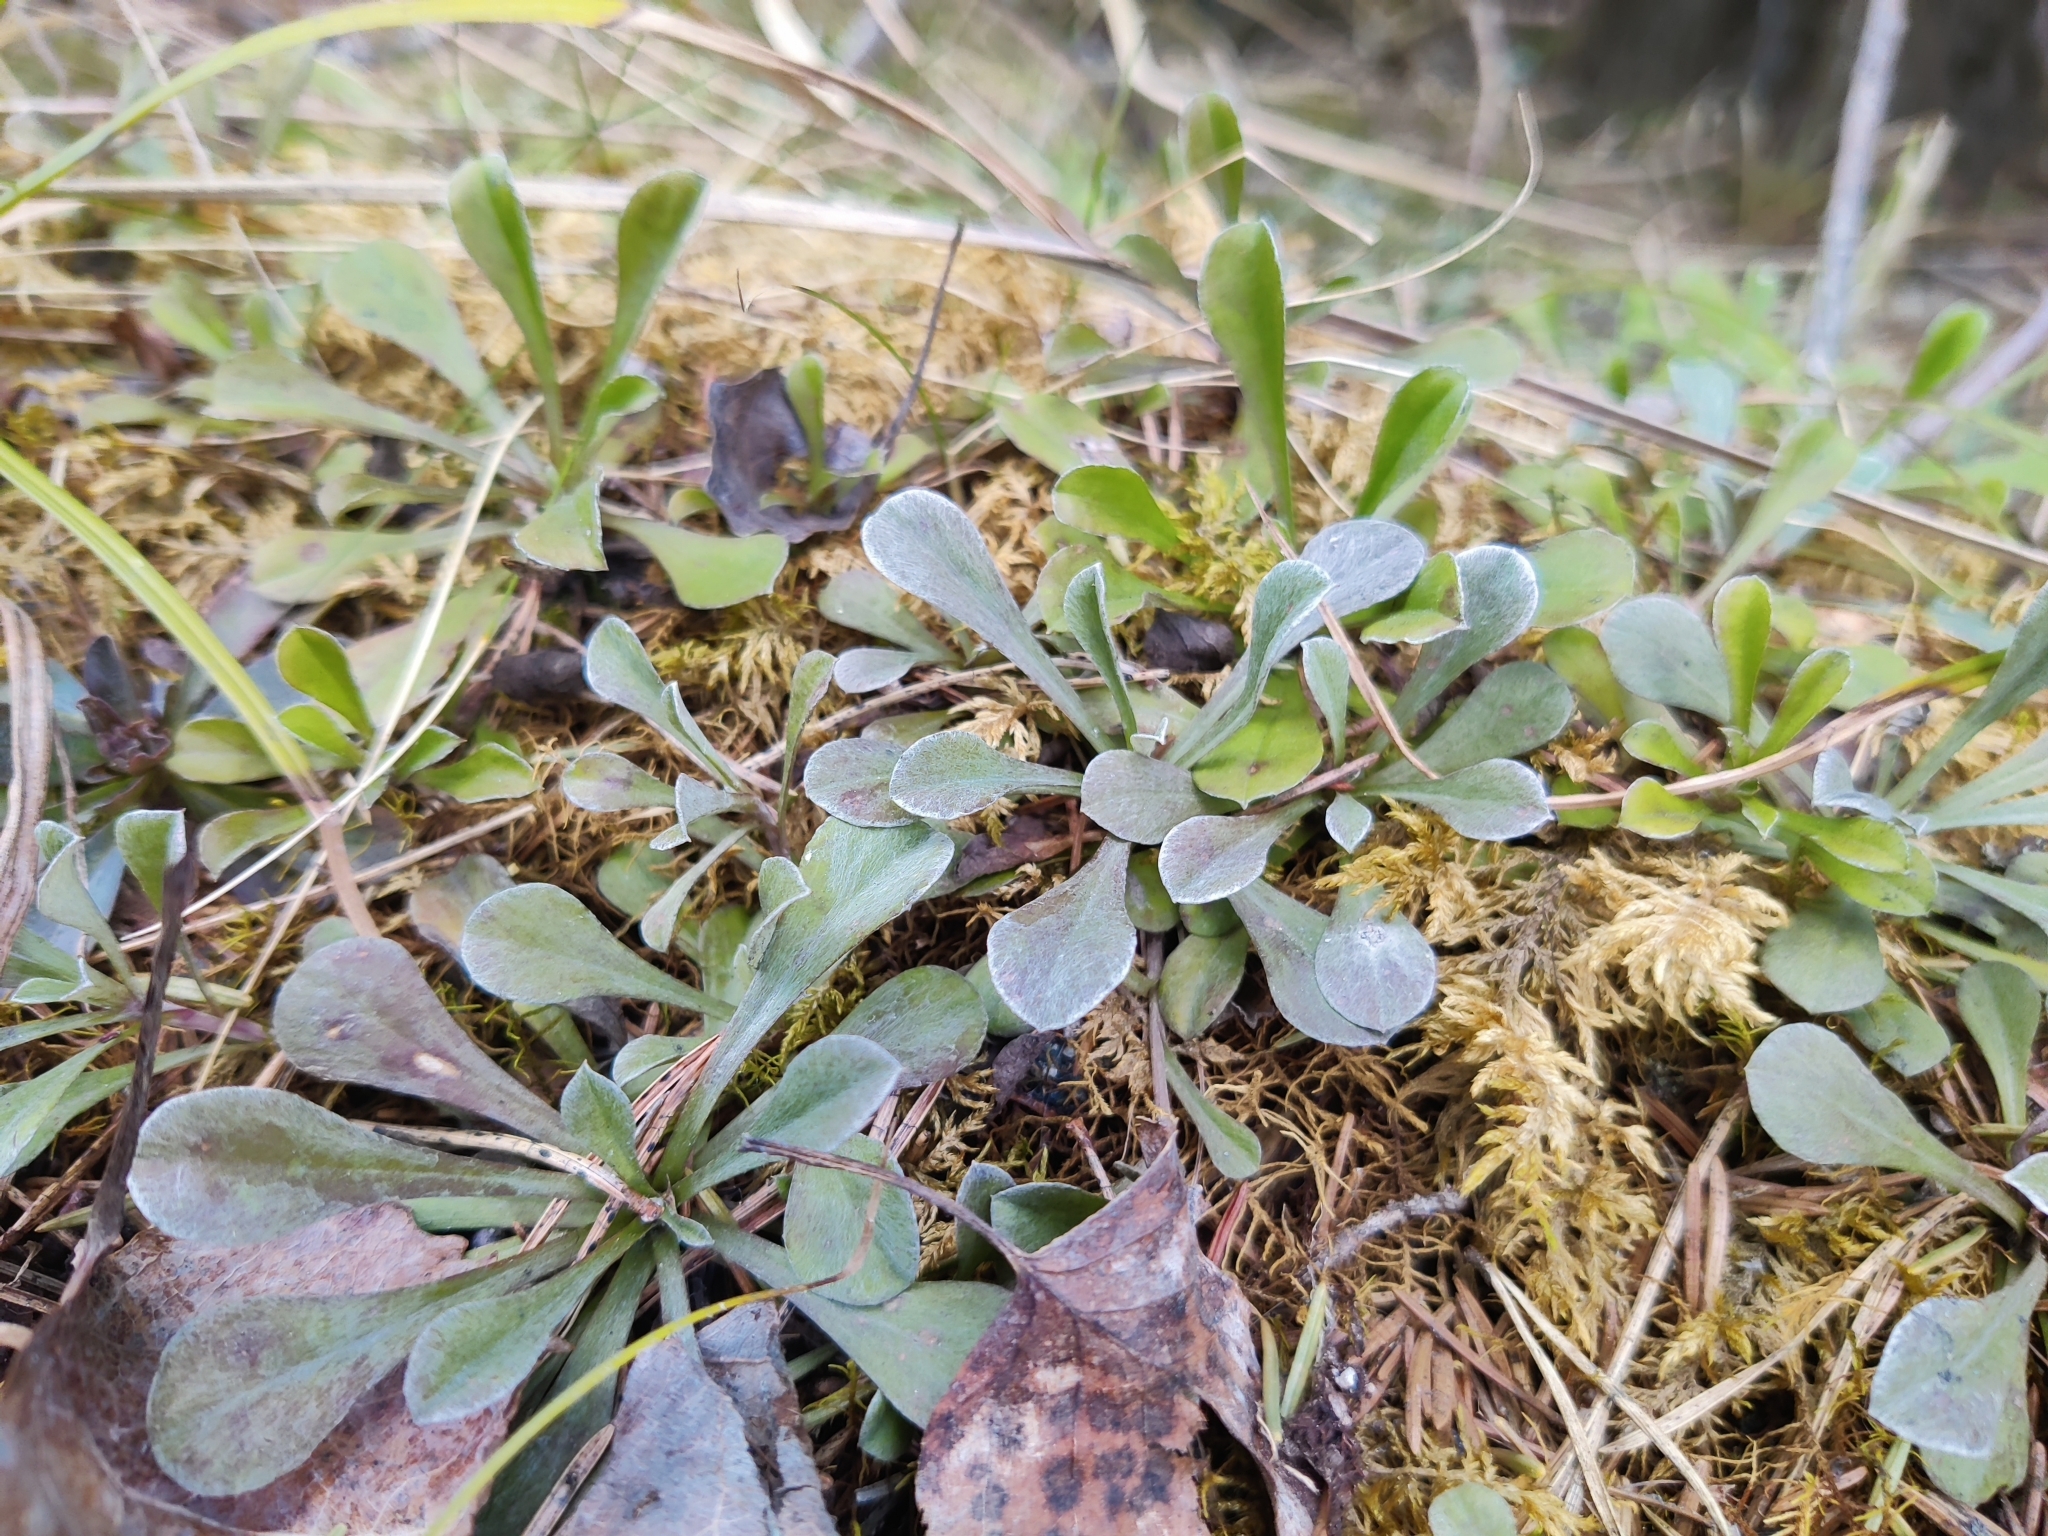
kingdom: Plantae
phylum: Tracheophyta
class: Magnoliopsida
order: Asterales
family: Asteraceae
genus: Antennaria
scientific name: Antennaria dioica
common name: Mountain everlasting
